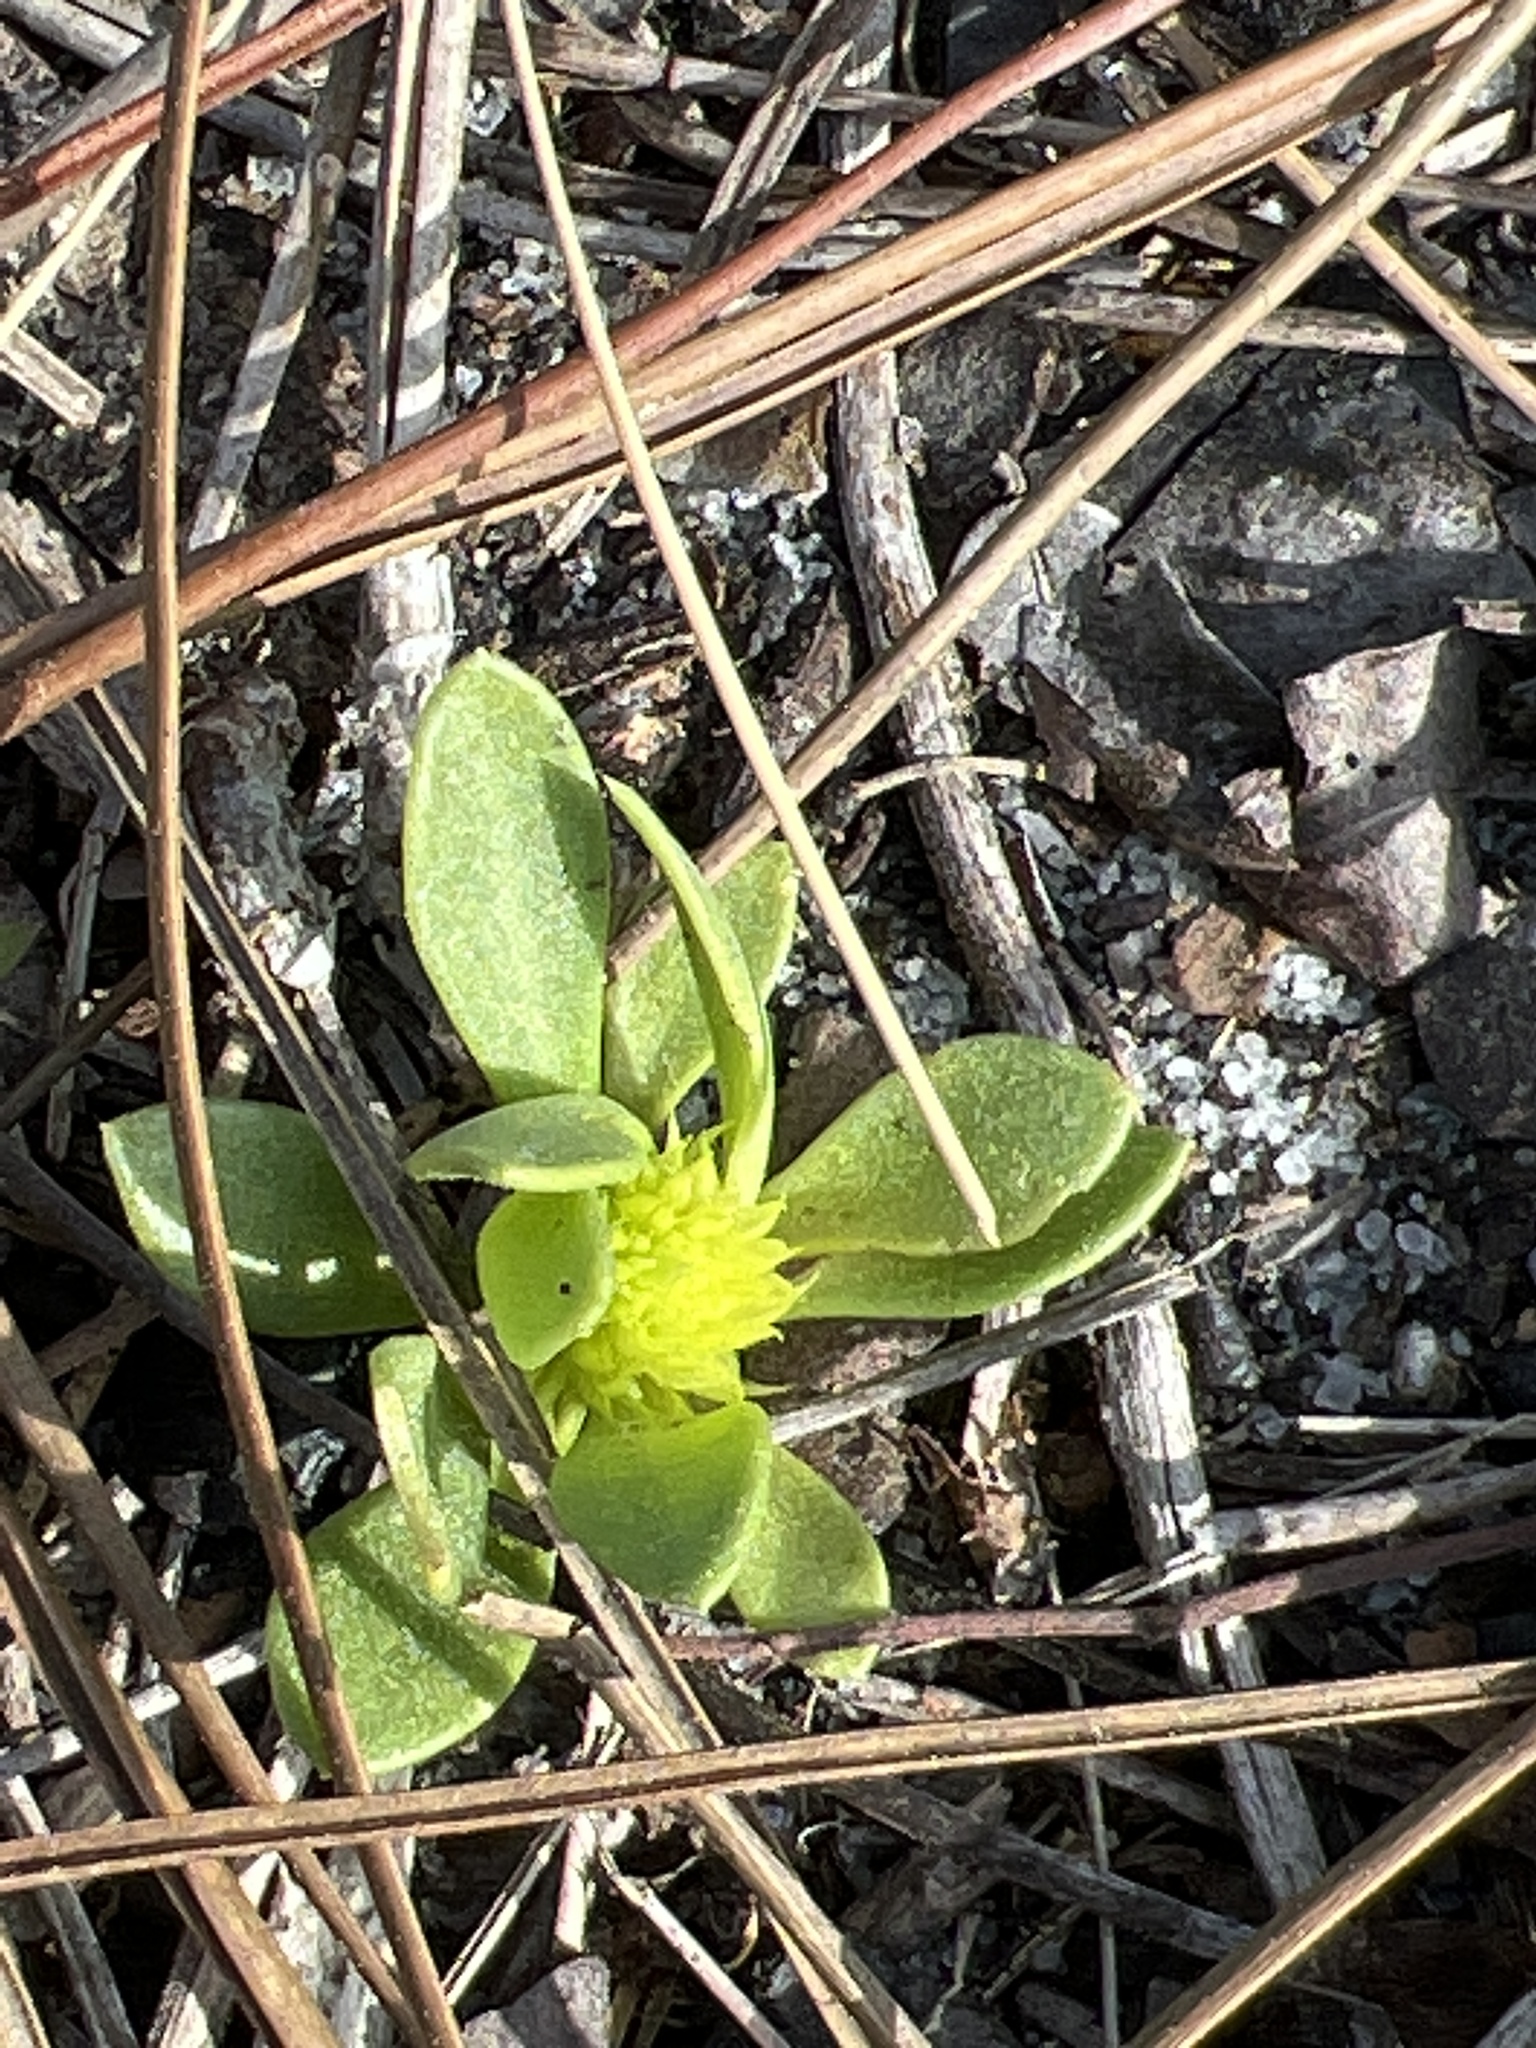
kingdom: Plantae
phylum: Tracheophyta
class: Magnoliopsida
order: Fabales
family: Polygalaceae
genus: Polygala
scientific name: Polygala nana
